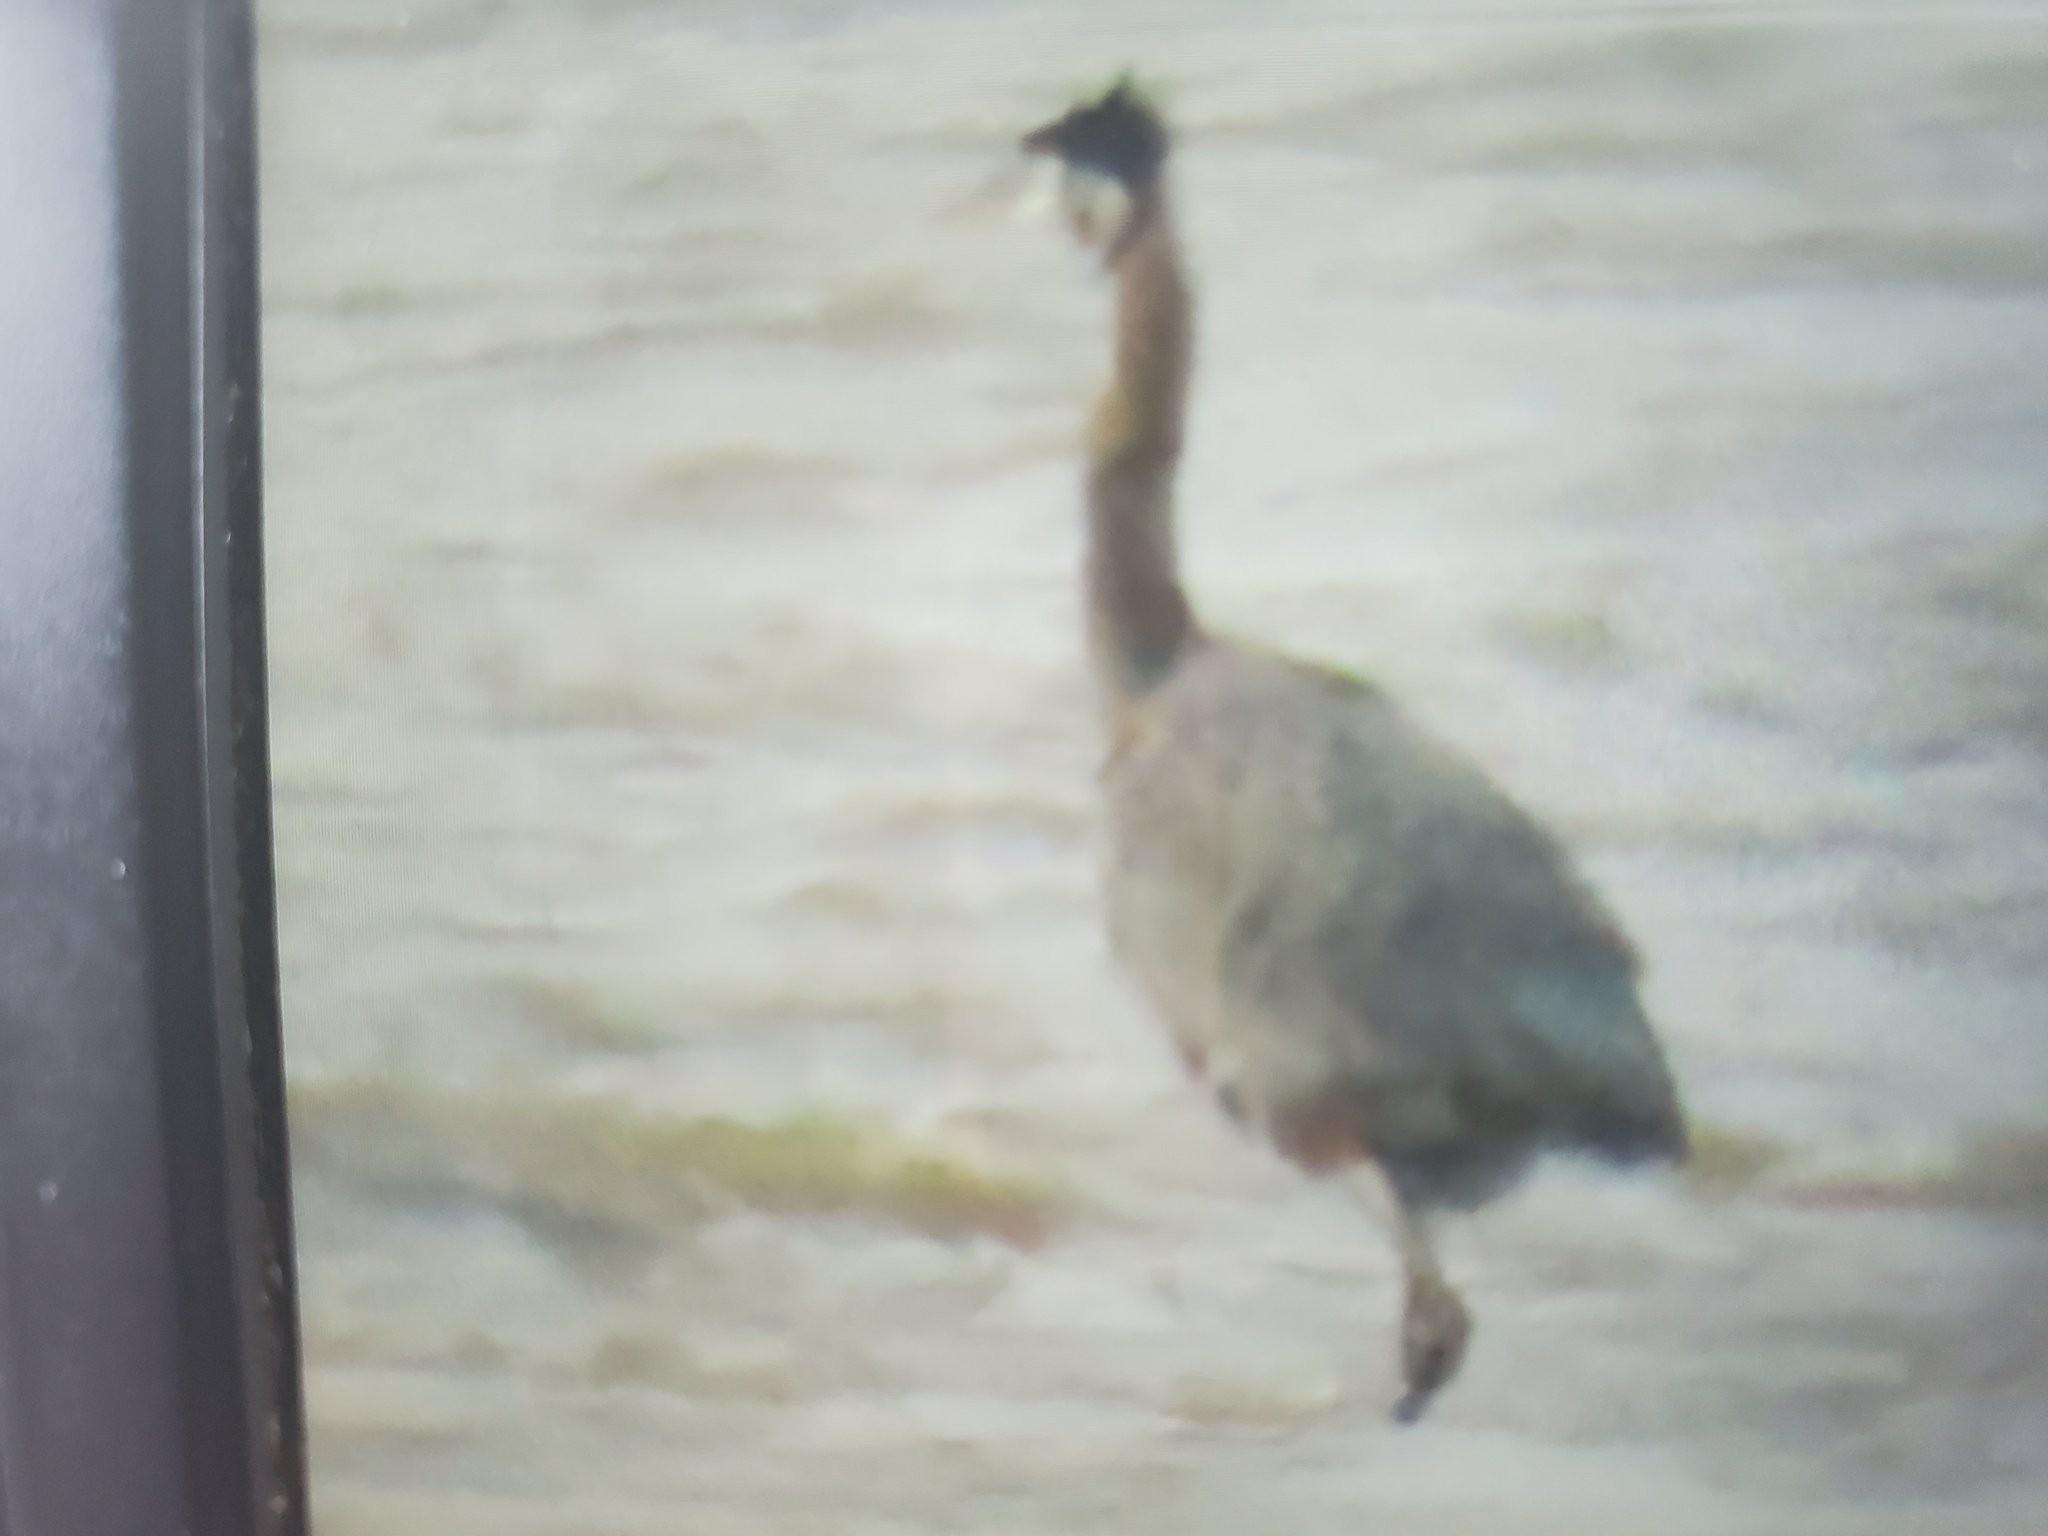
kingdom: Animalia
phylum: Chordata
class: Aves
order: Pelecaniformes
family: Ardeidae
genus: Ardea
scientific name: Ardea herodias
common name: Great blue heron
